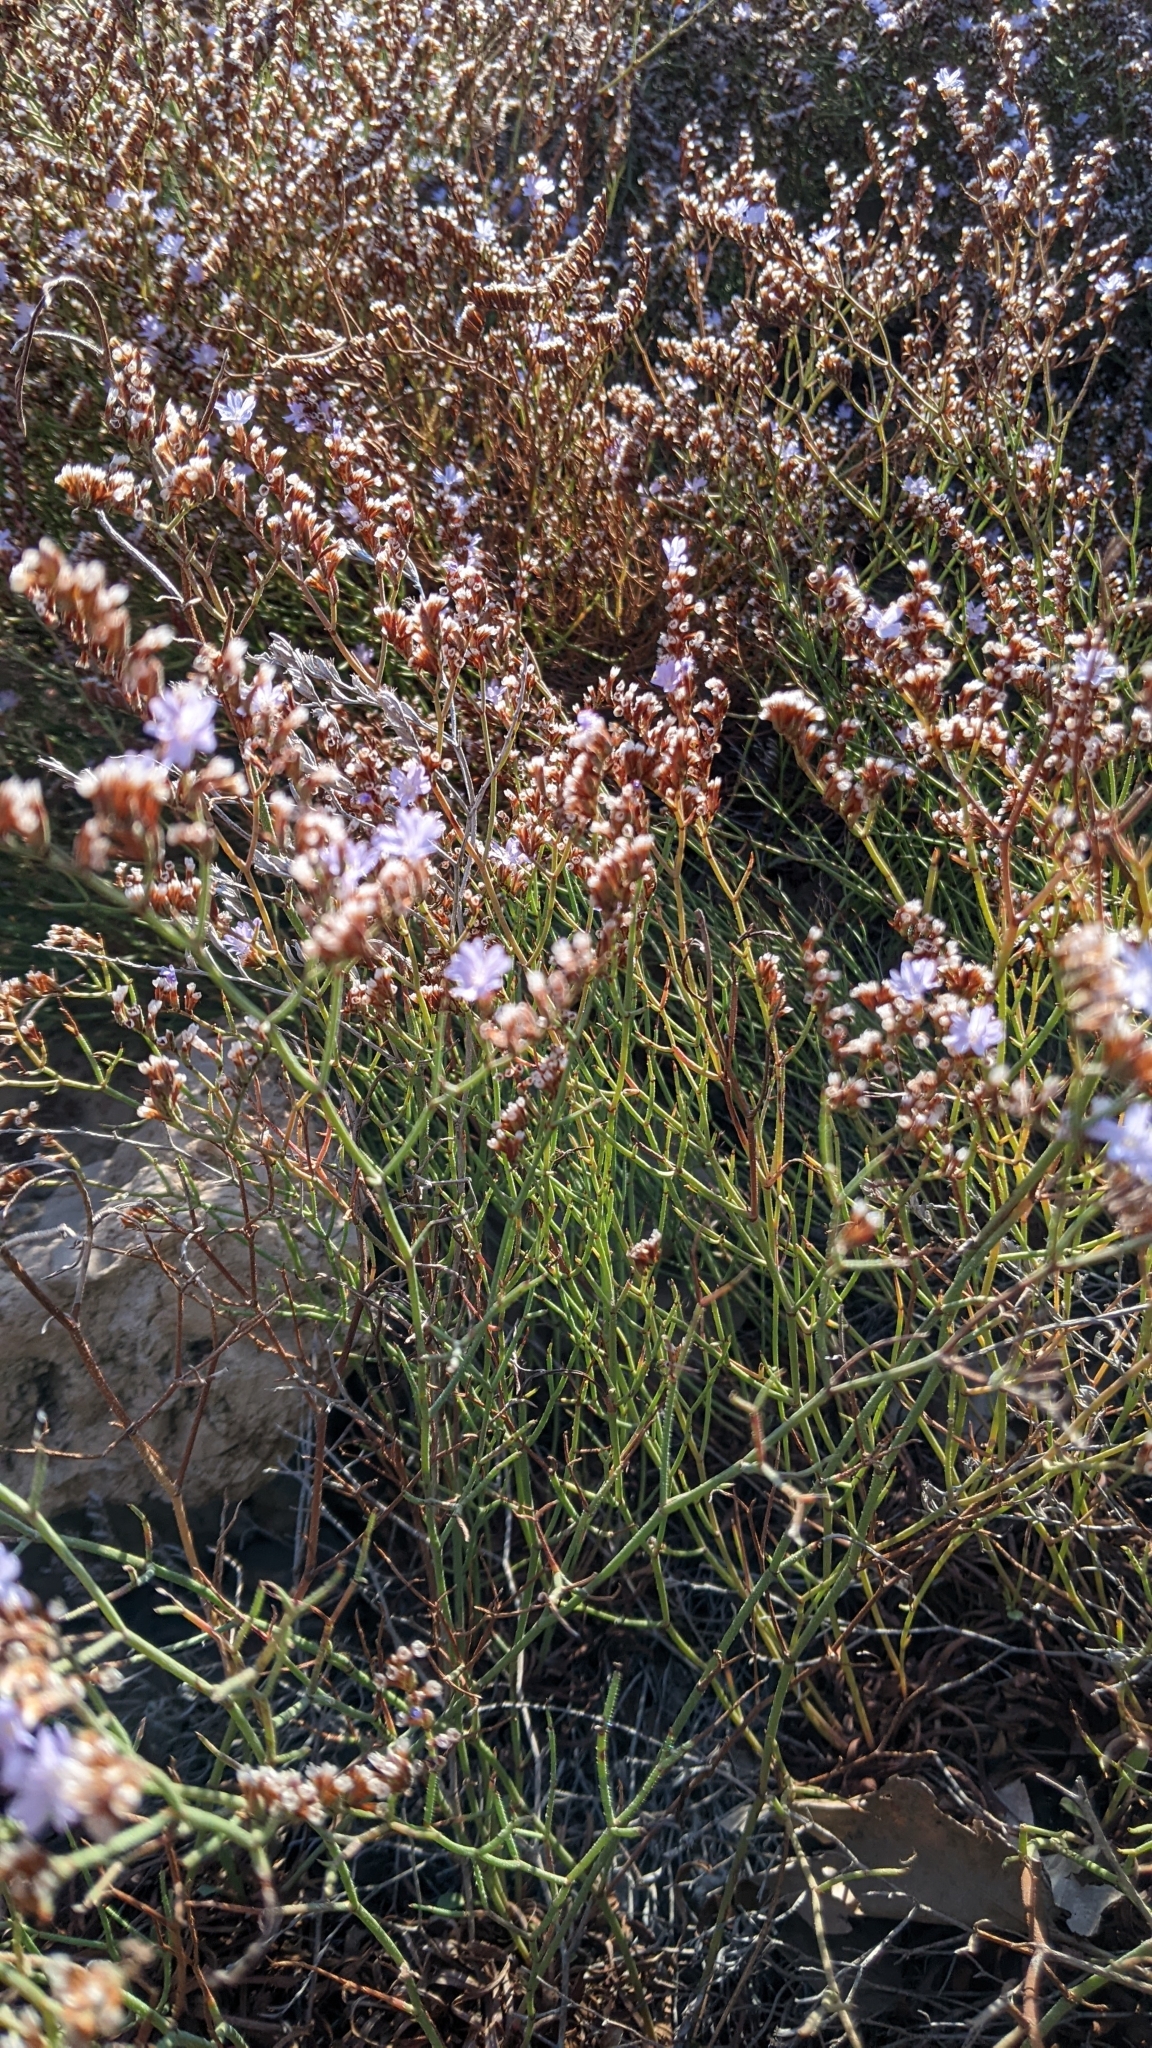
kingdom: Plantae
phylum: Tracheophyta
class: Magnoliopsida
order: Caryophyllales
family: Plumbaginaceae
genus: Limonium
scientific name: Limonium virgatum
